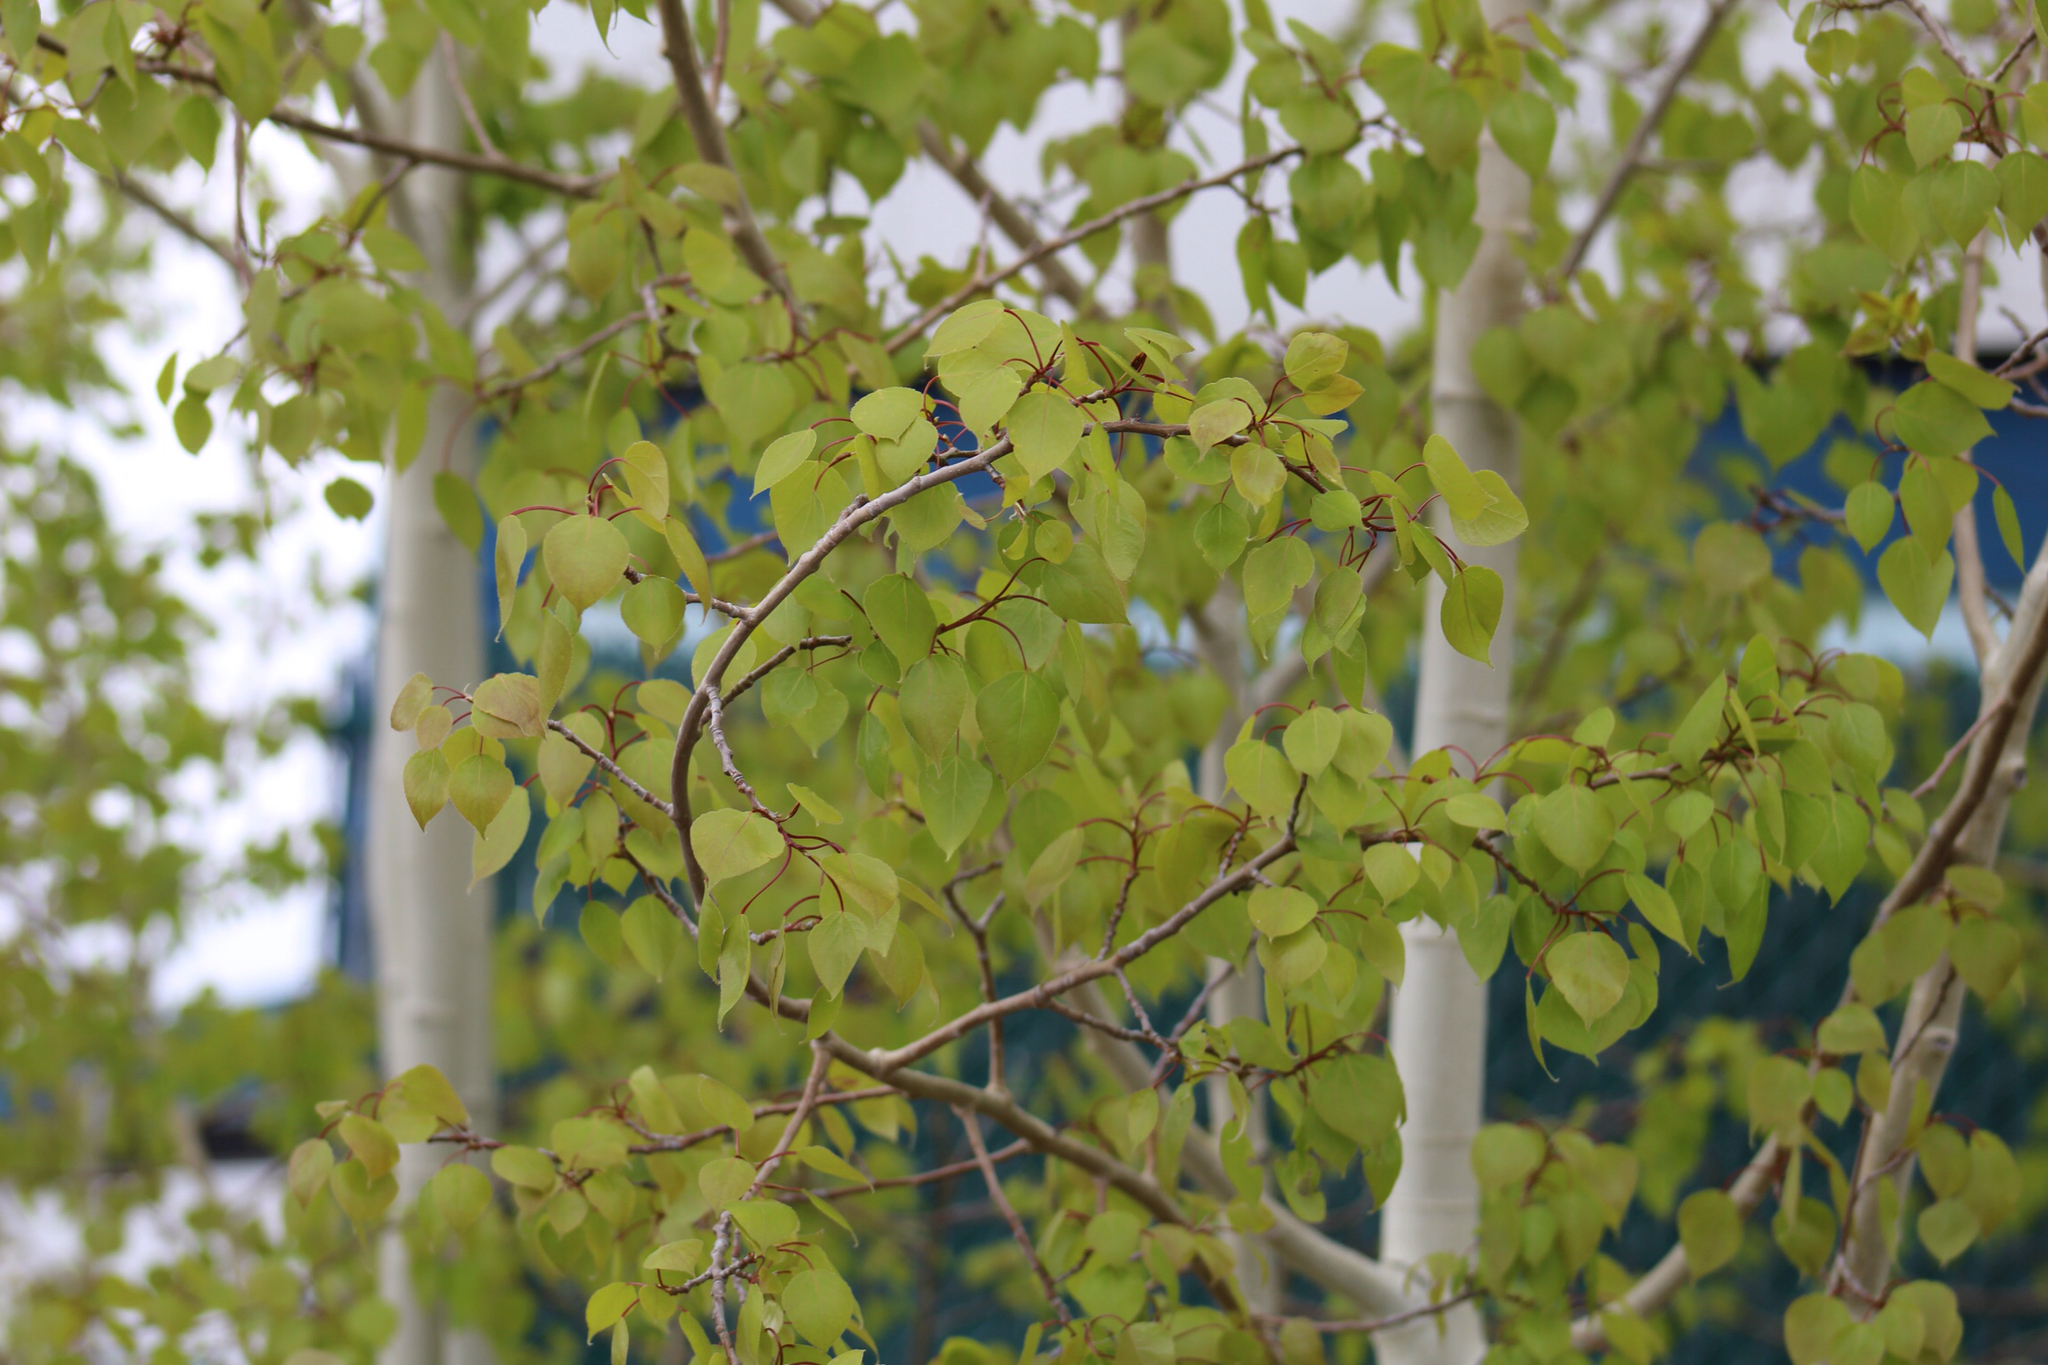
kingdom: Plantae
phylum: Tracheophyta
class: Magnoliopsida
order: Malpighiales
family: Salicaceae
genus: Populus
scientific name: Populus tremuloides
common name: Quaking aspen
